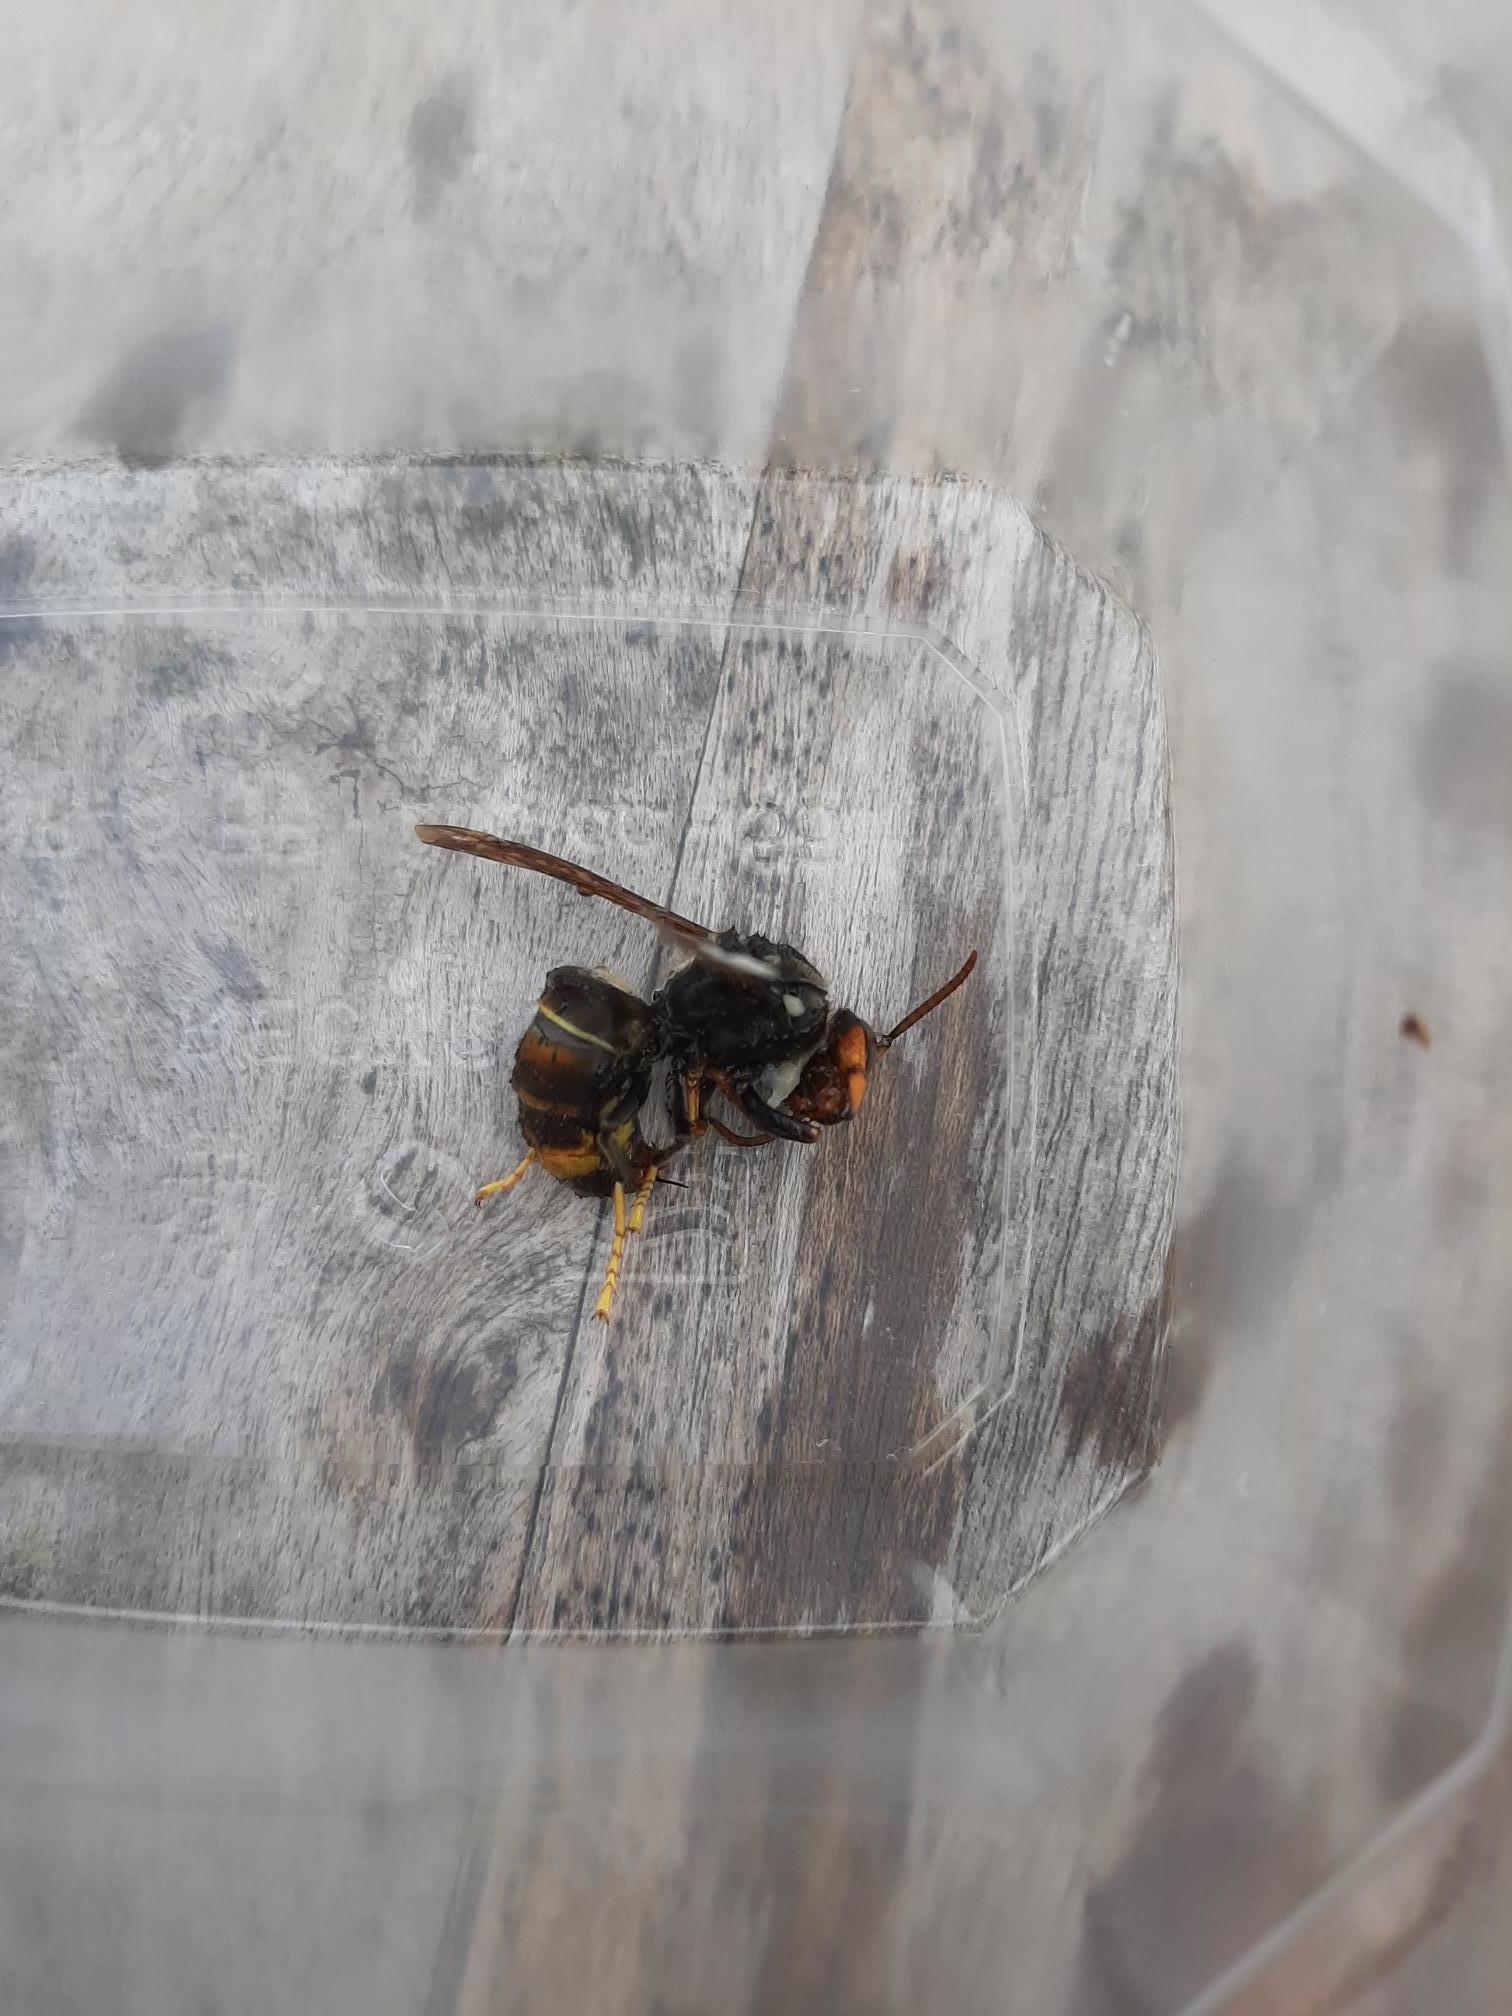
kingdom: Animalia
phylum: Arthropoda
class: Insecta
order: Hymenoptera
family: Vespidae
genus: Vespa
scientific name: Vespa velutina
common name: Asian hornet
